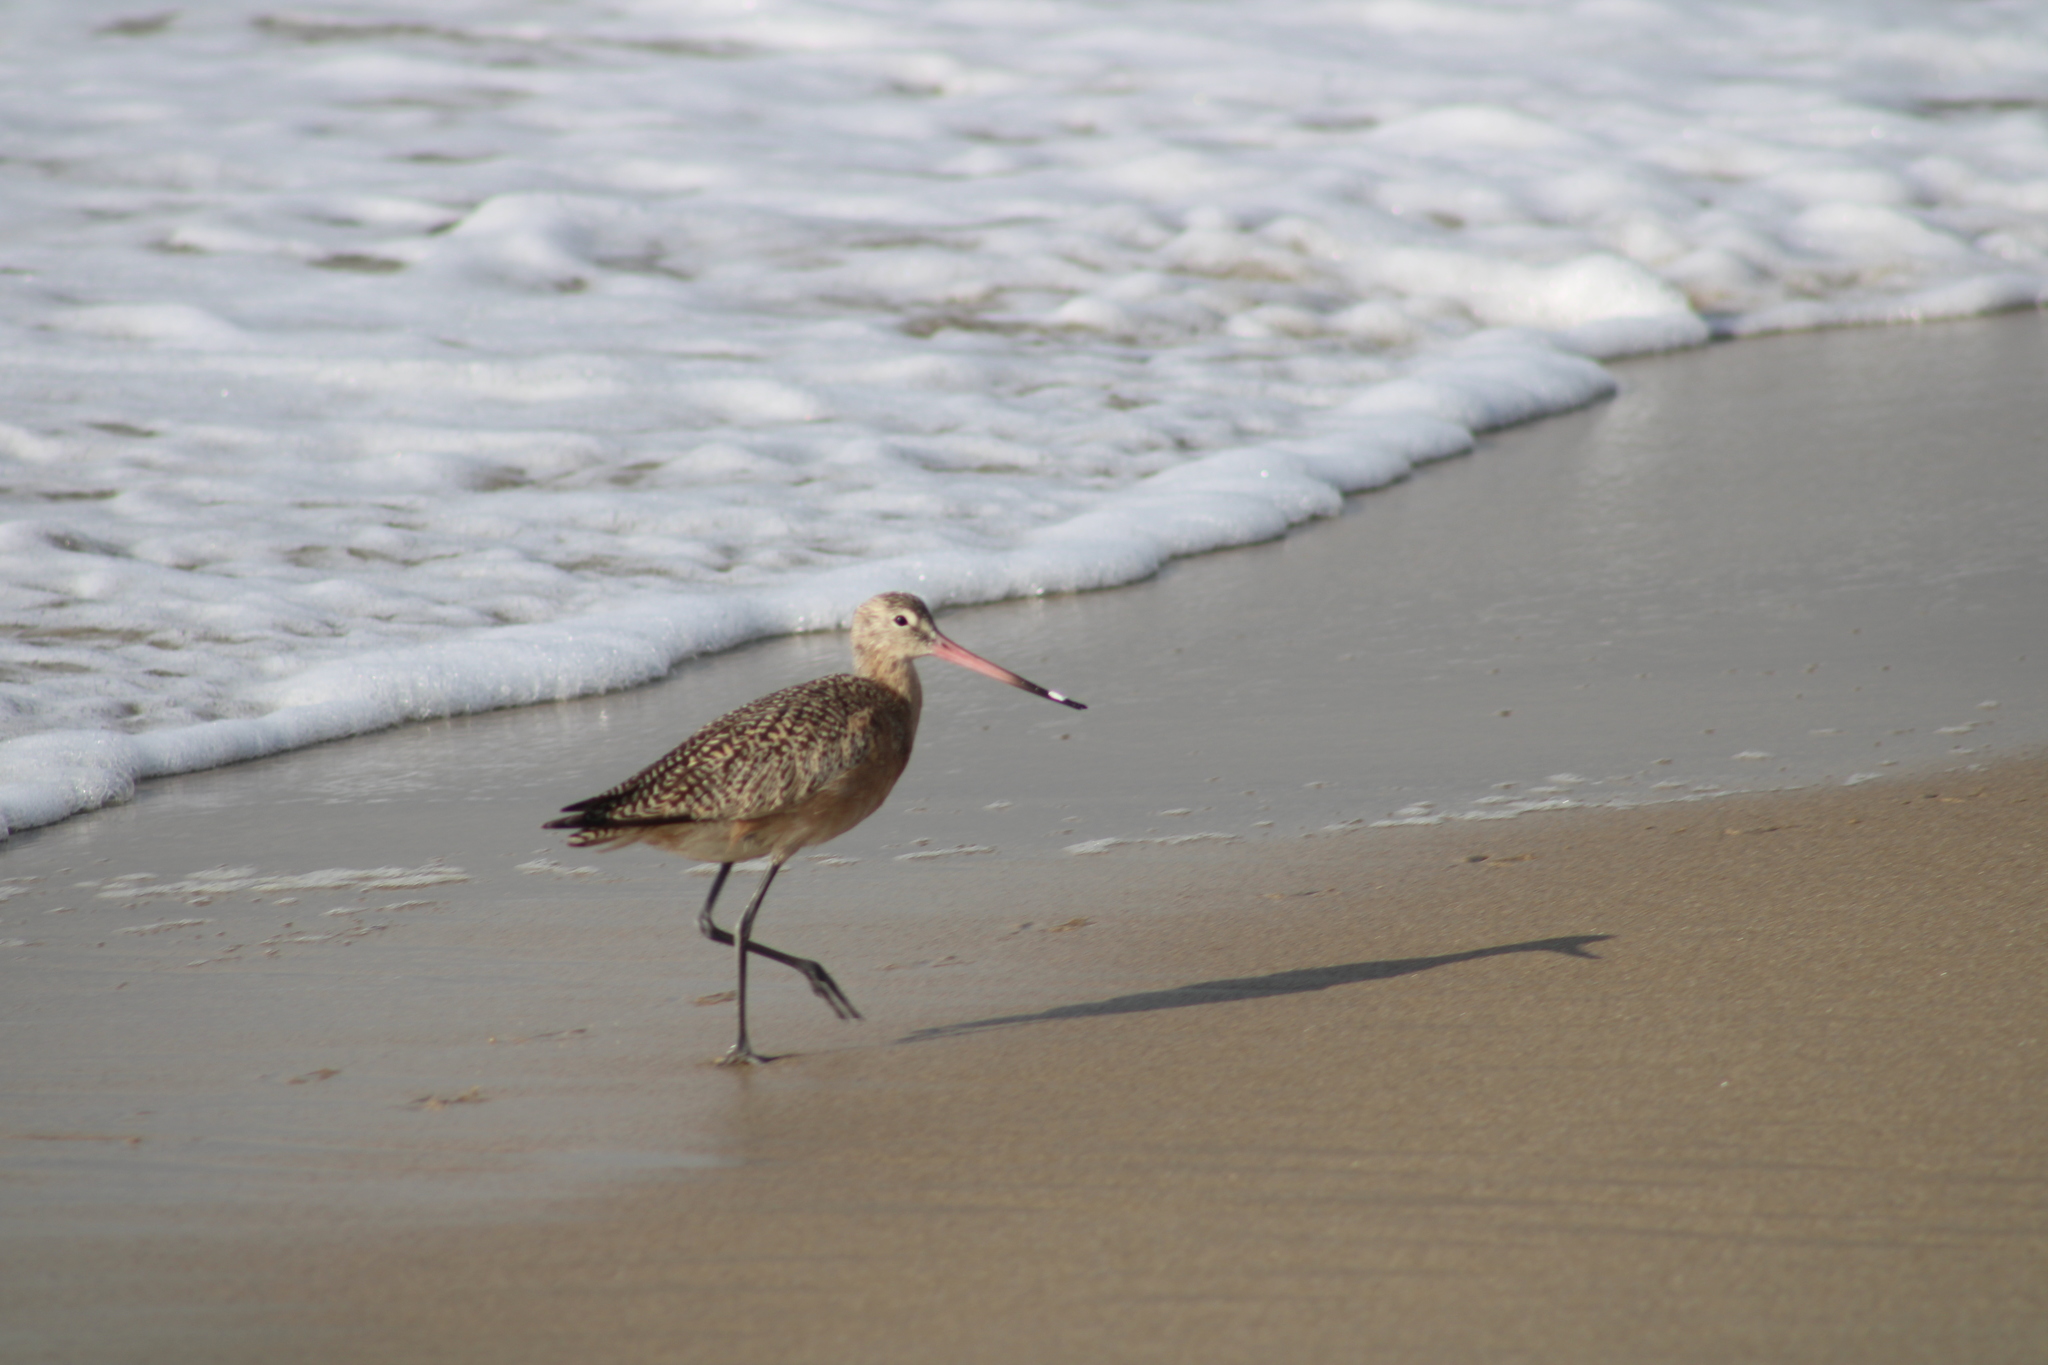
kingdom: Animalia
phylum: Chordata
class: Aves
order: Charadriiformes
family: Scolopacidae
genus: Limosa
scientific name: Limosa fedoa
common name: Marbled godwit
